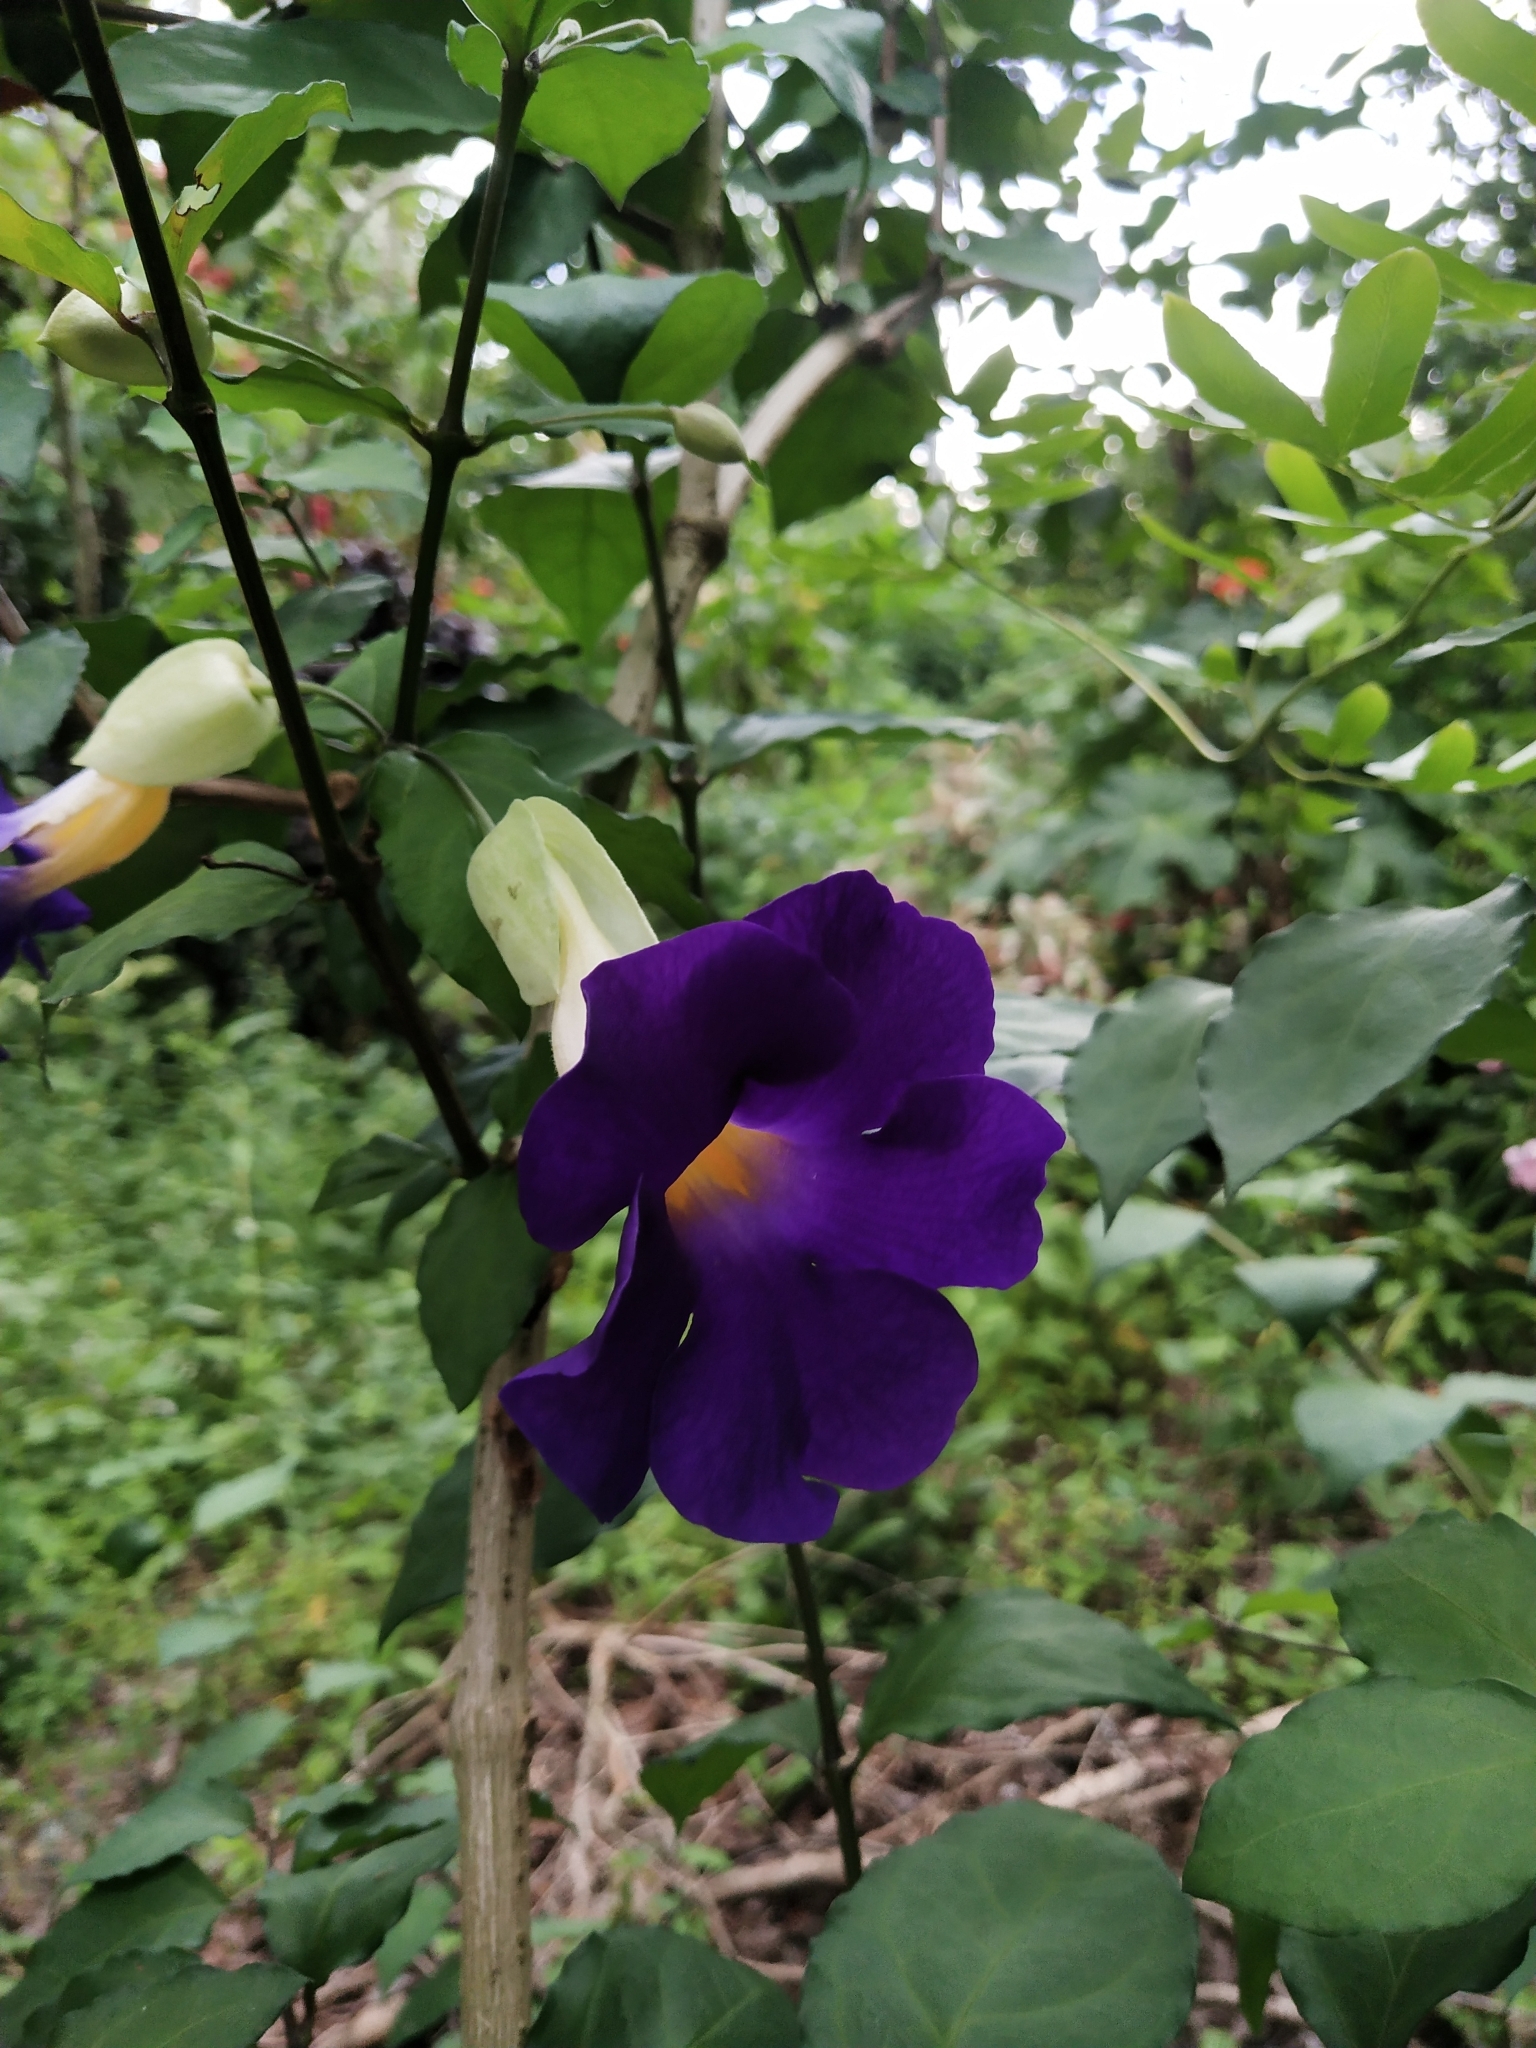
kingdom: Plantae
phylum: Tracheophyta
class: Magnoliopsida
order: Lamiales
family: Acanthaceae
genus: Thunbergia
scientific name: Thunbergia erecta
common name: Bush clockvine
